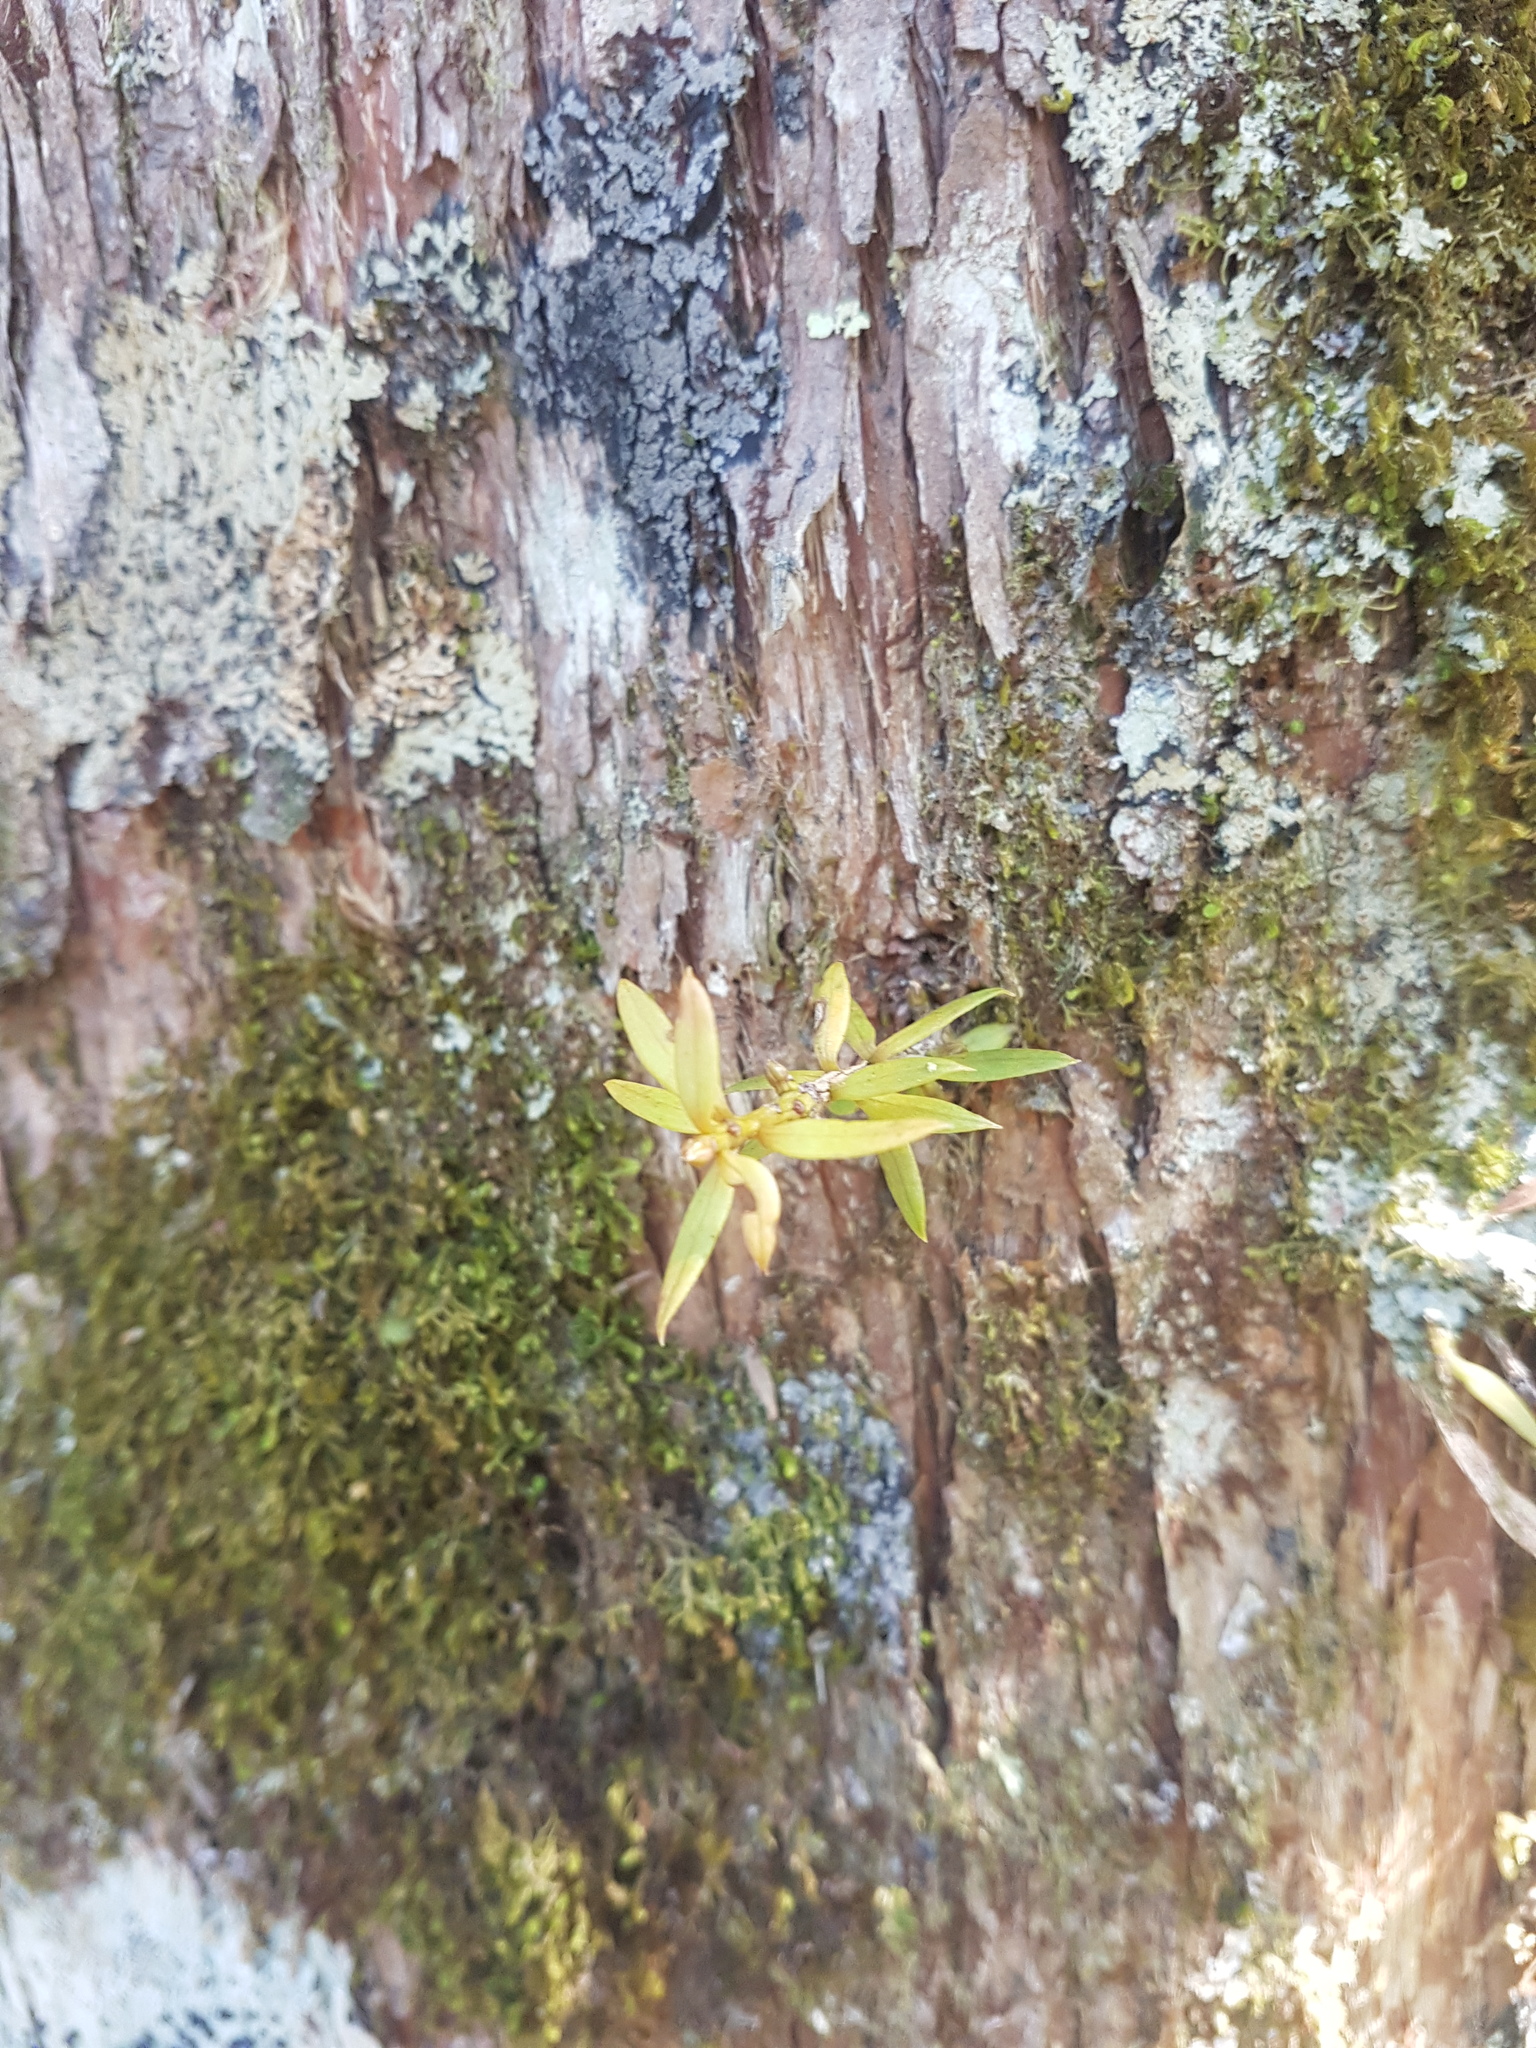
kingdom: Plantae
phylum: Tracheophyta
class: Pinopsida
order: Pinales
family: Podocarpaceae
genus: Podocarpus
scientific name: Podocarpus laetus
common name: Hall's totara
